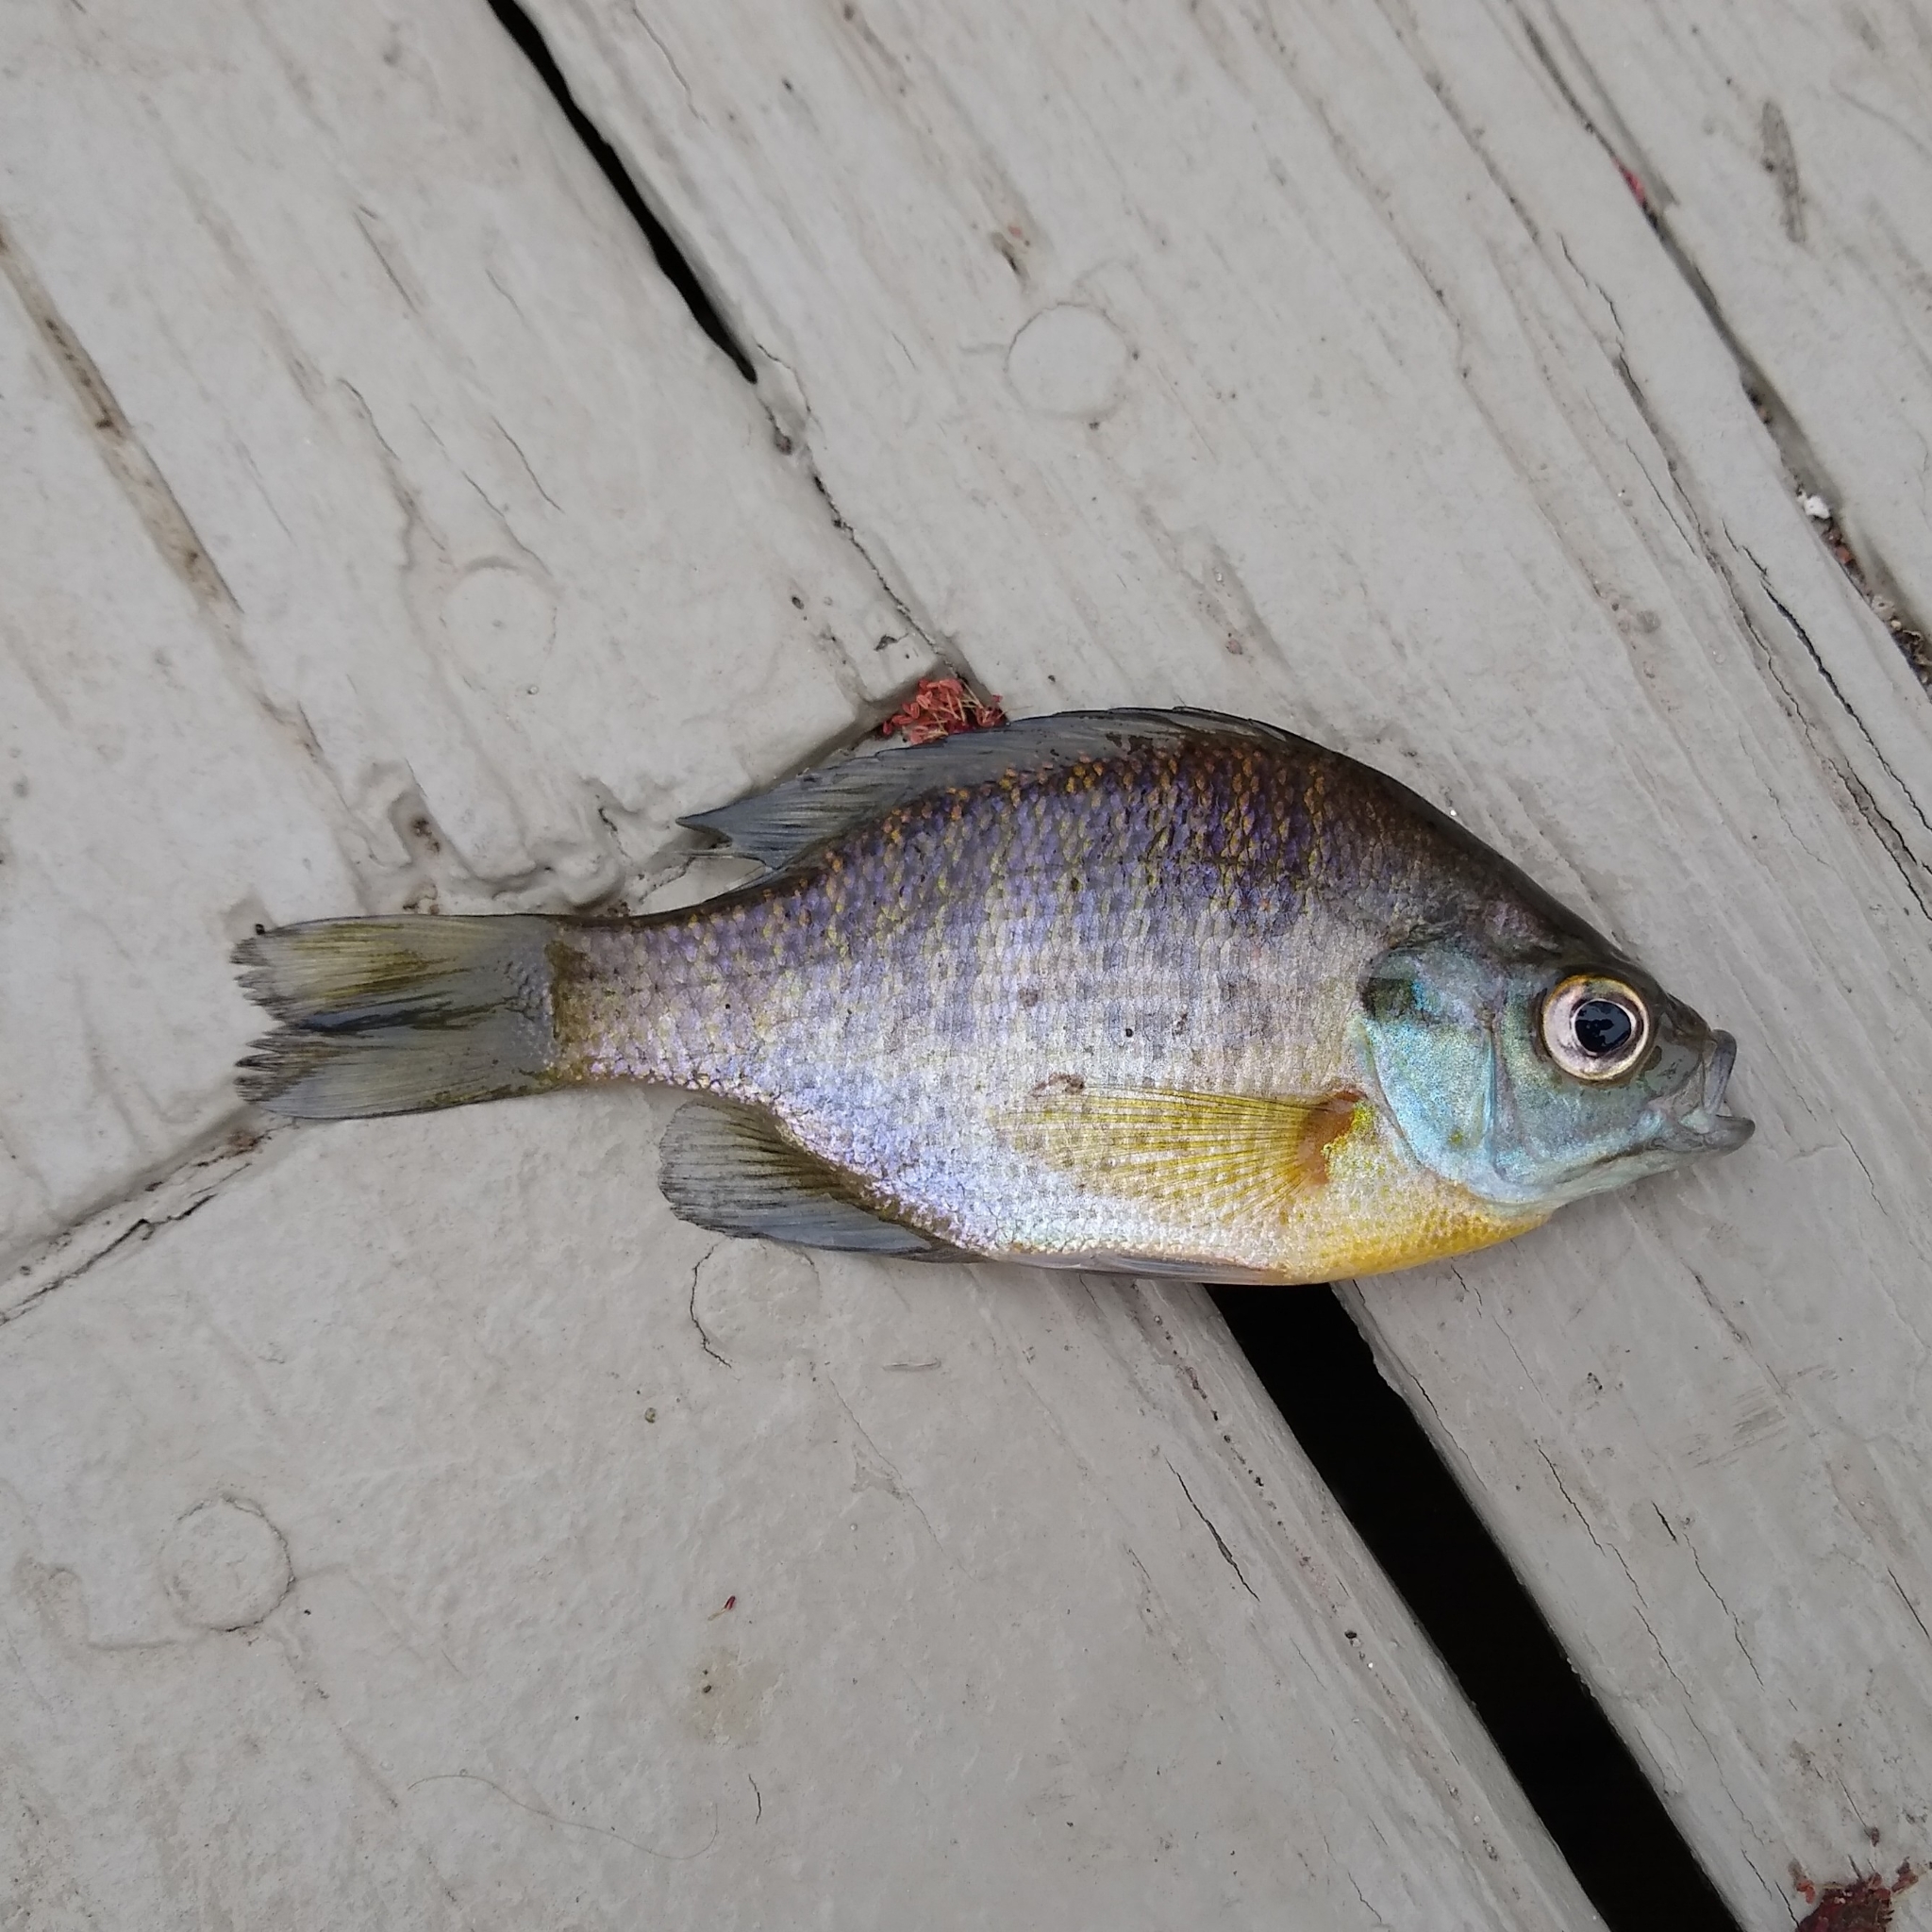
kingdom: Animalia
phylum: Chordata
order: Perciformes
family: Centrarchidae
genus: Lepomis
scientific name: Lepomis macrochirus
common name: Bluegill
